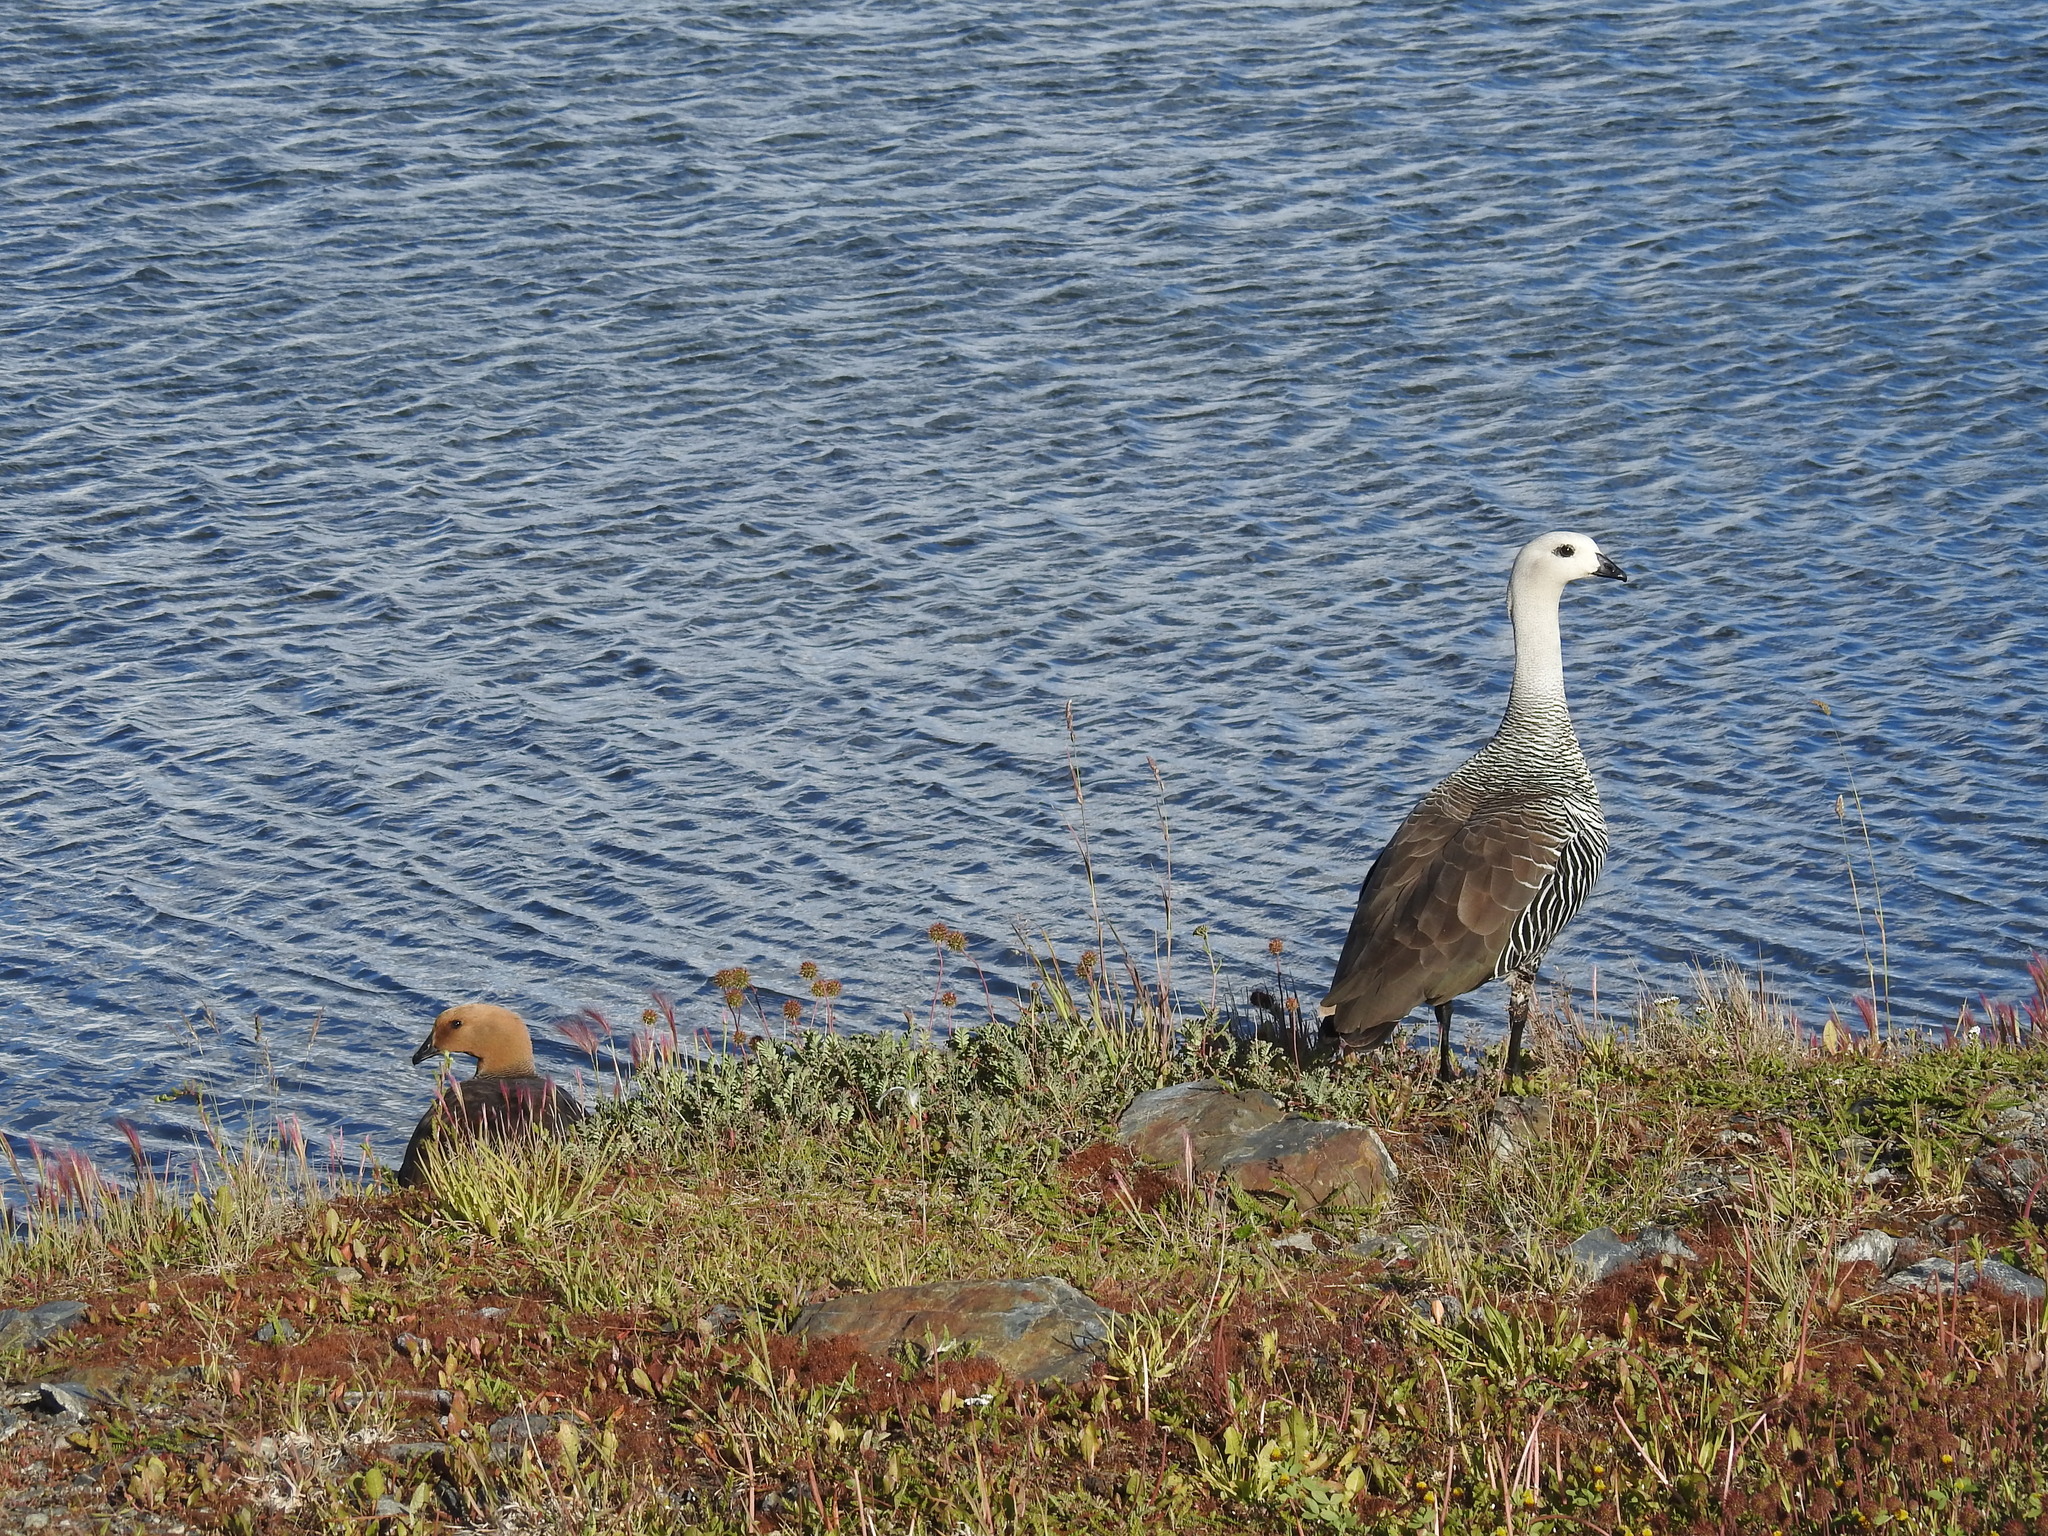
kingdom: Animalia
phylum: Chordata
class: Aves
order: Anseriformes
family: Anatidae
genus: Chloephaga
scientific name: Chloephaga picta
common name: Upland goose
